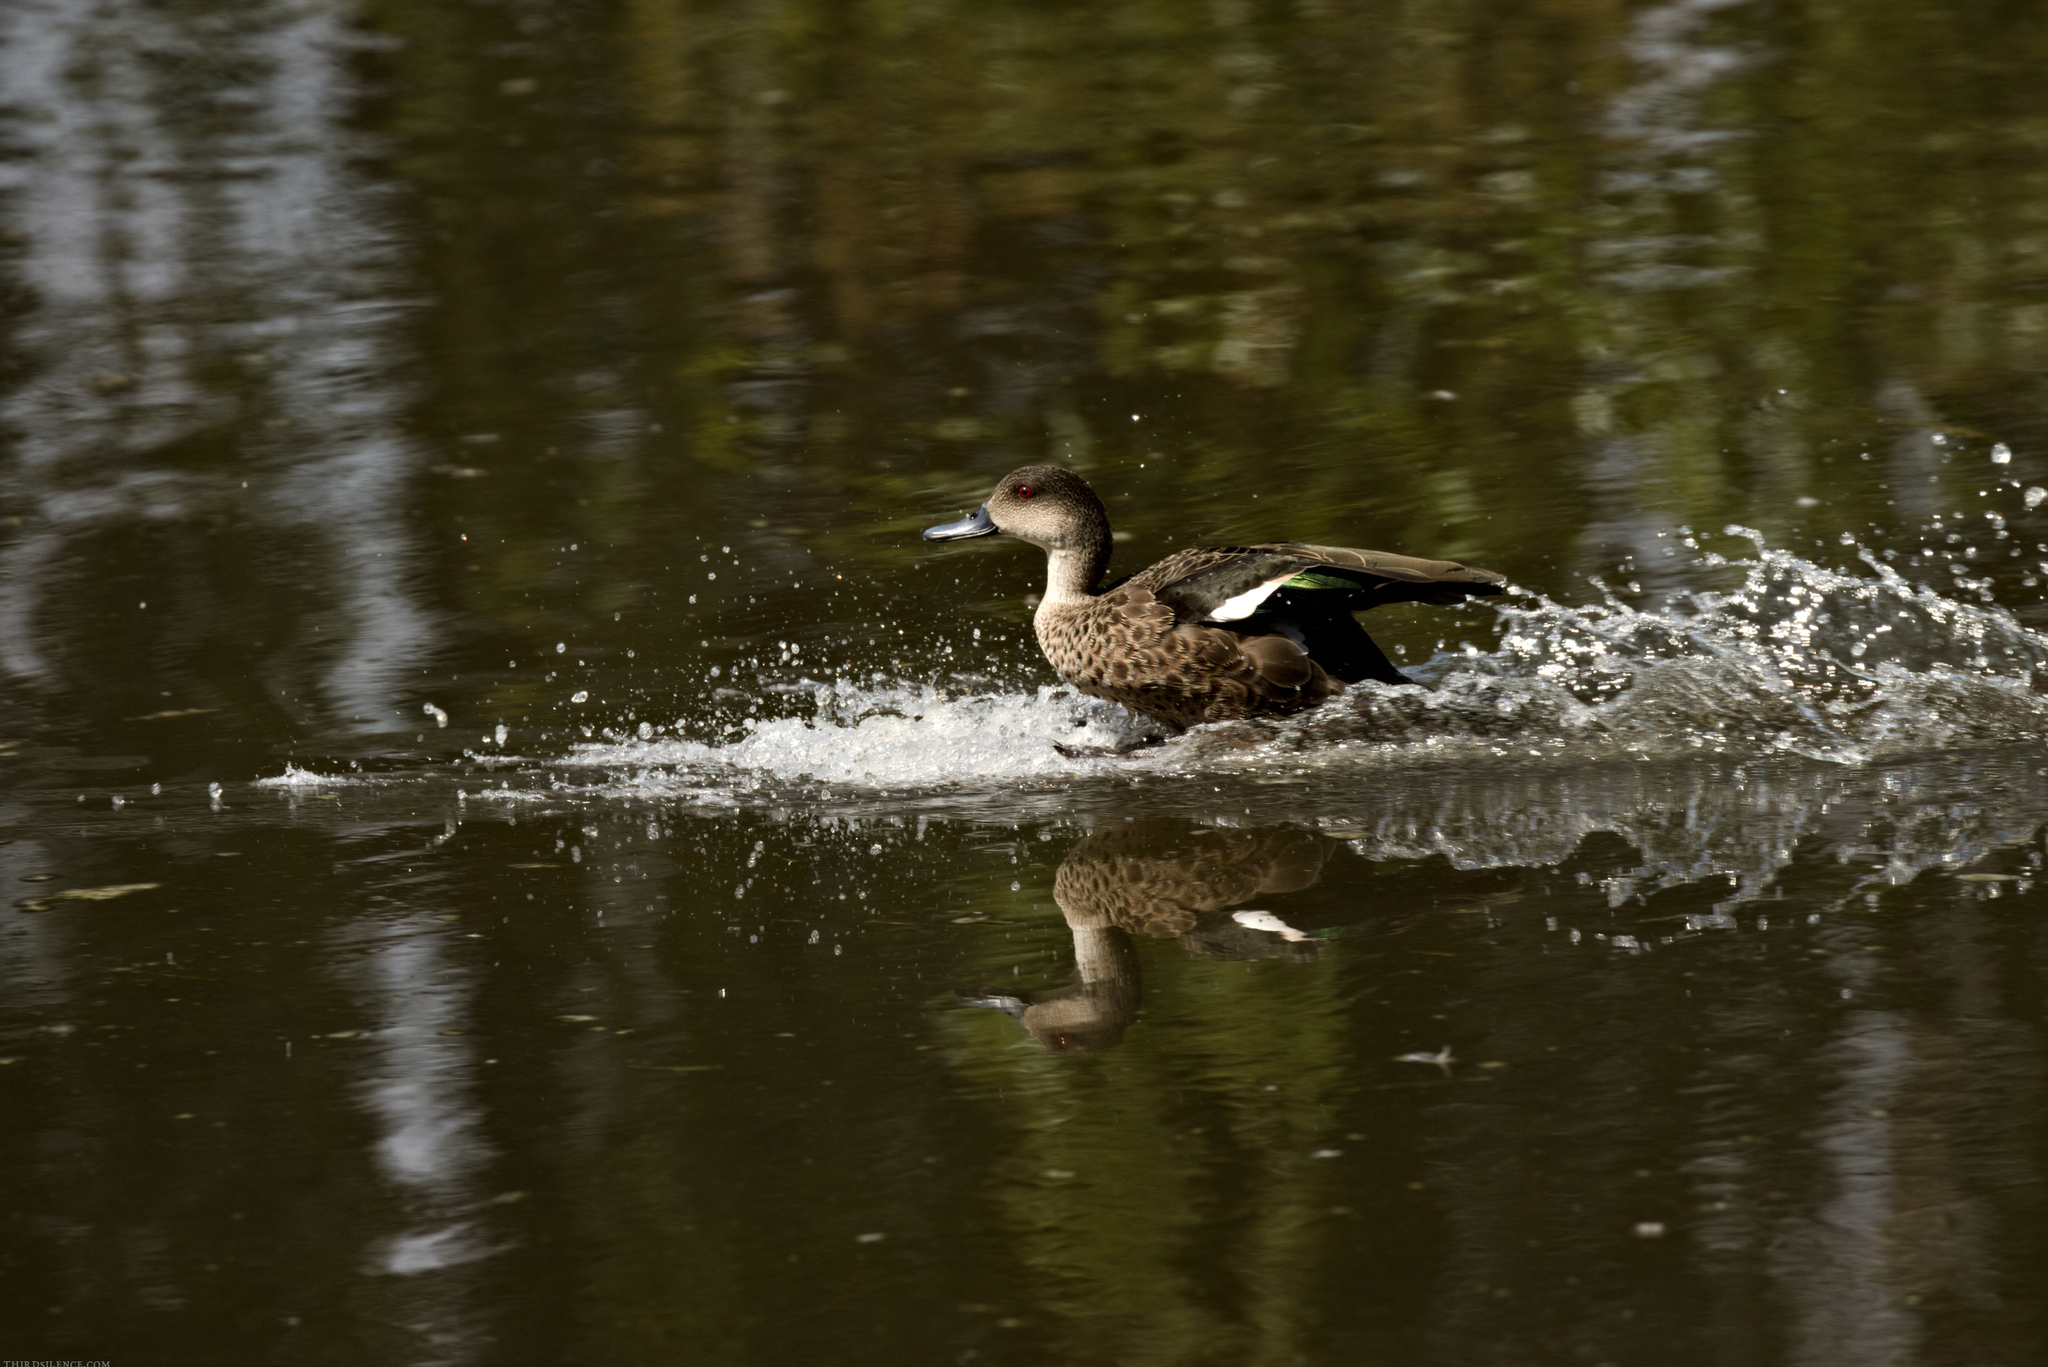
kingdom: Animalia
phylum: Chordata
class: Aves
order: Anseriformes
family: Anatidae
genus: Anas
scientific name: Anas gracilis
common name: Grey teal
